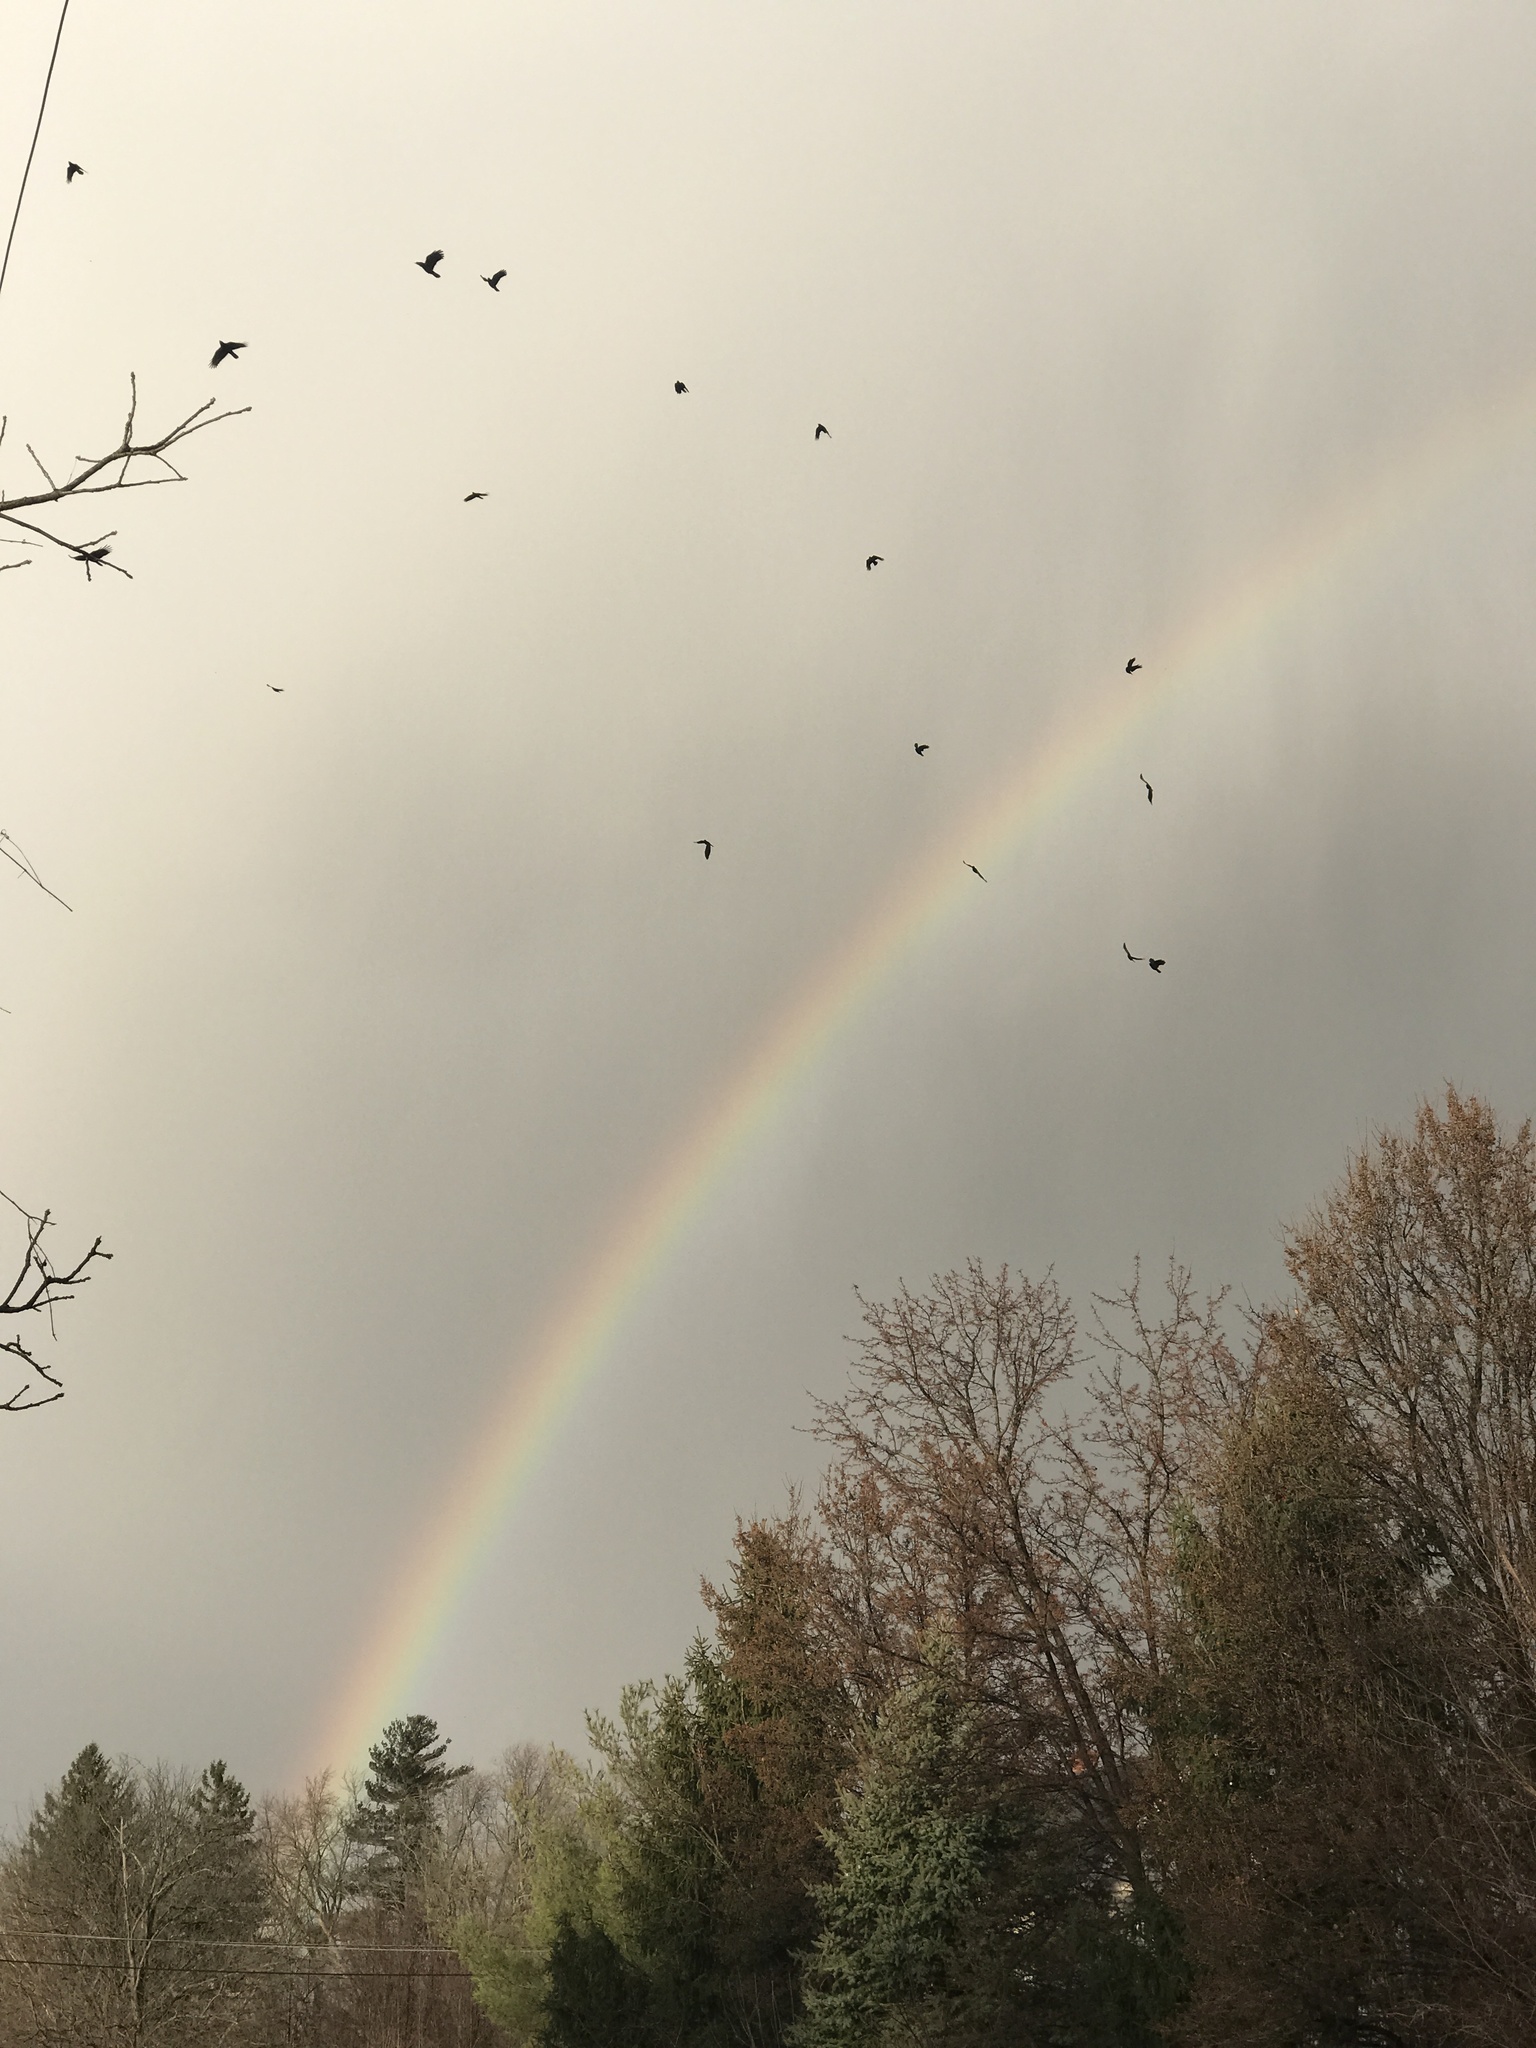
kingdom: Animalia
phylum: Chordata
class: Aves
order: Passeriformes
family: Corvidae
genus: Corvus
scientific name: Corvus brachyrhynchos
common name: American crow
